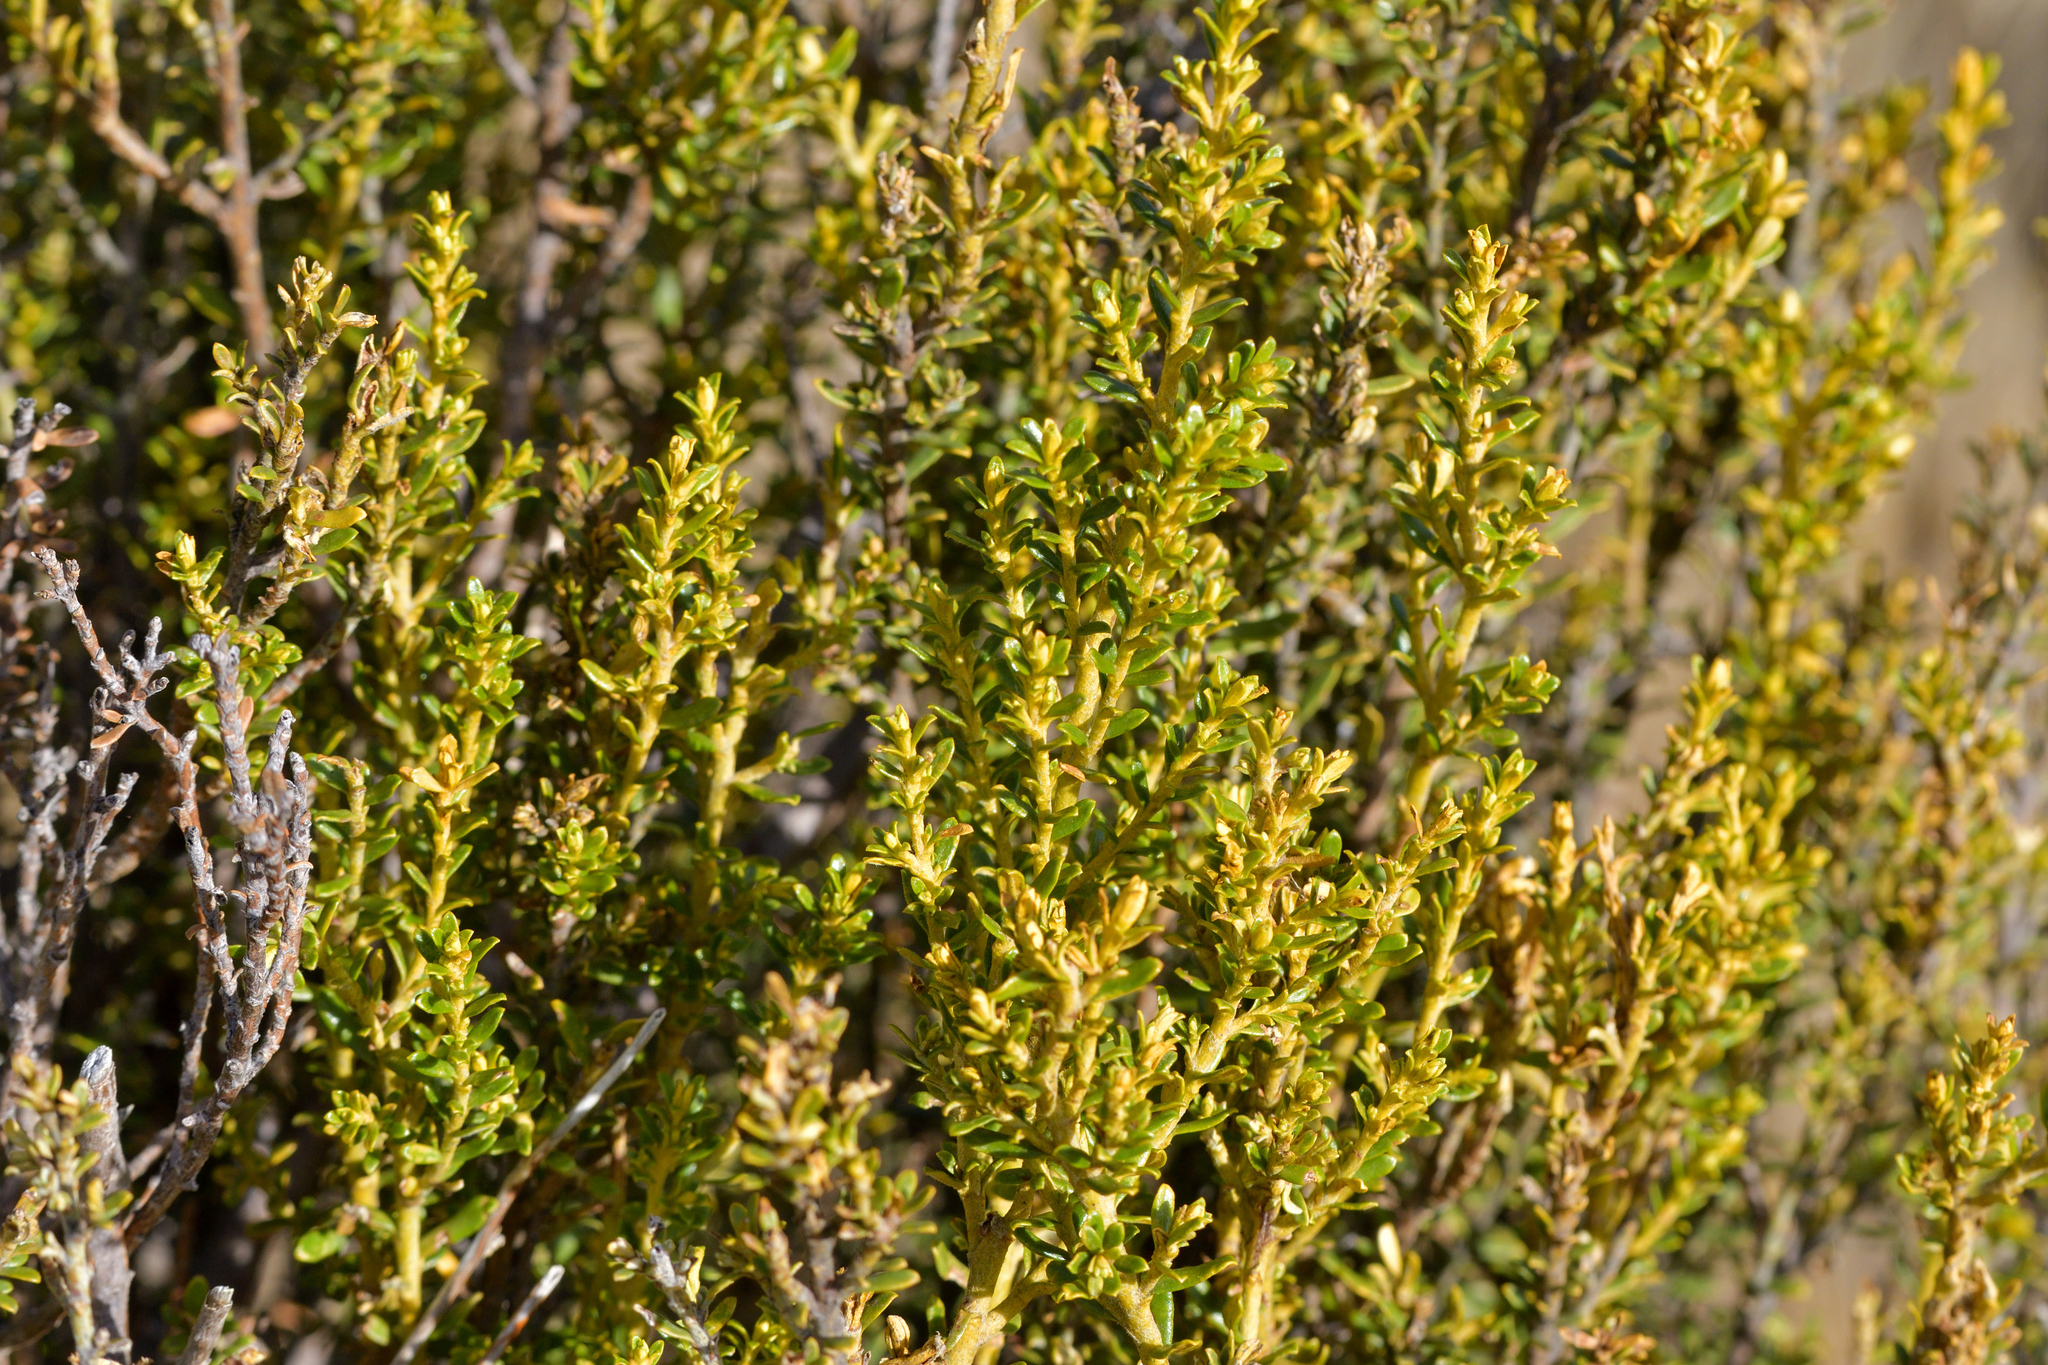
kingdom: Plantae
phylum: Tracheophyta
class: Magnoliopsida
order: Asterales
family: Asteraceae
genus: Ozothamnus
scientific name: Ozothamnus leptophyllus
